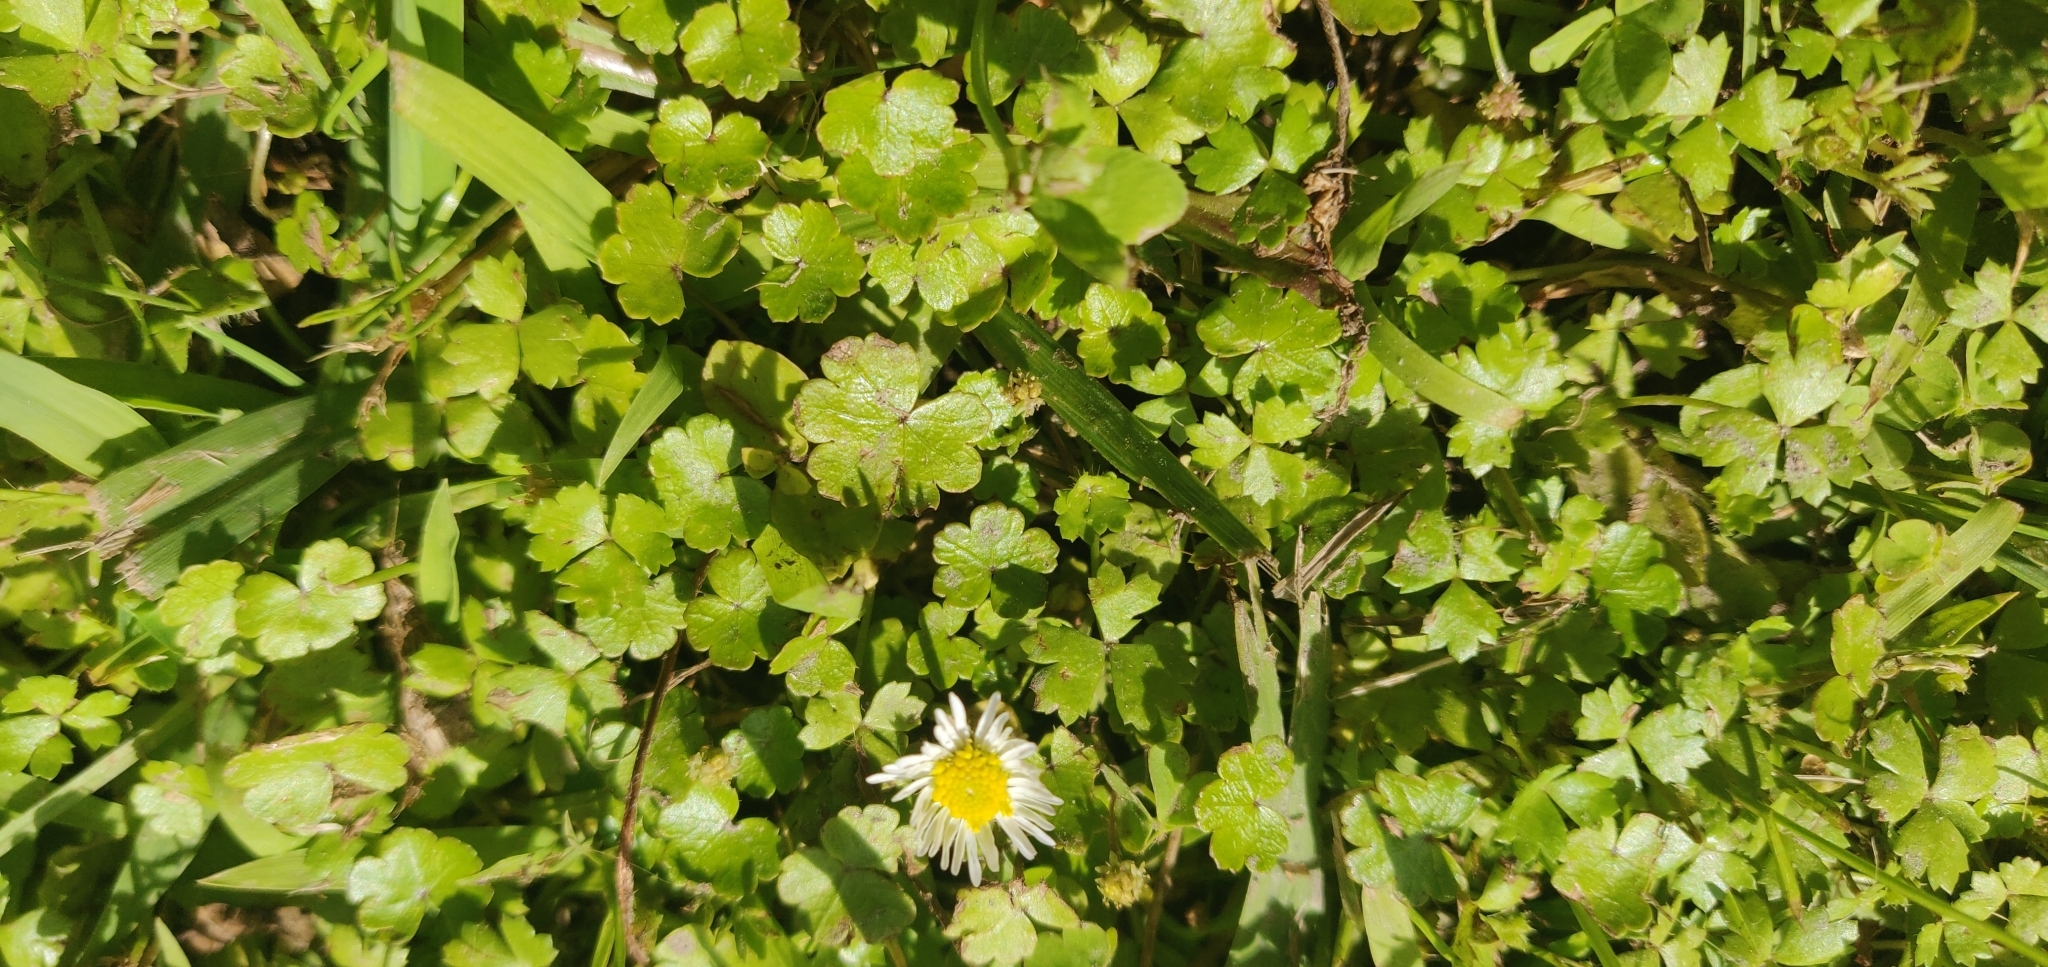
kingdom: Plantae
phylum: Tracheophyta
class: Magnoliopsida
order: Apiales
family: Araliaceae
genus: Hydrocotyle
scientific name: Hydrocotyle microphylla
